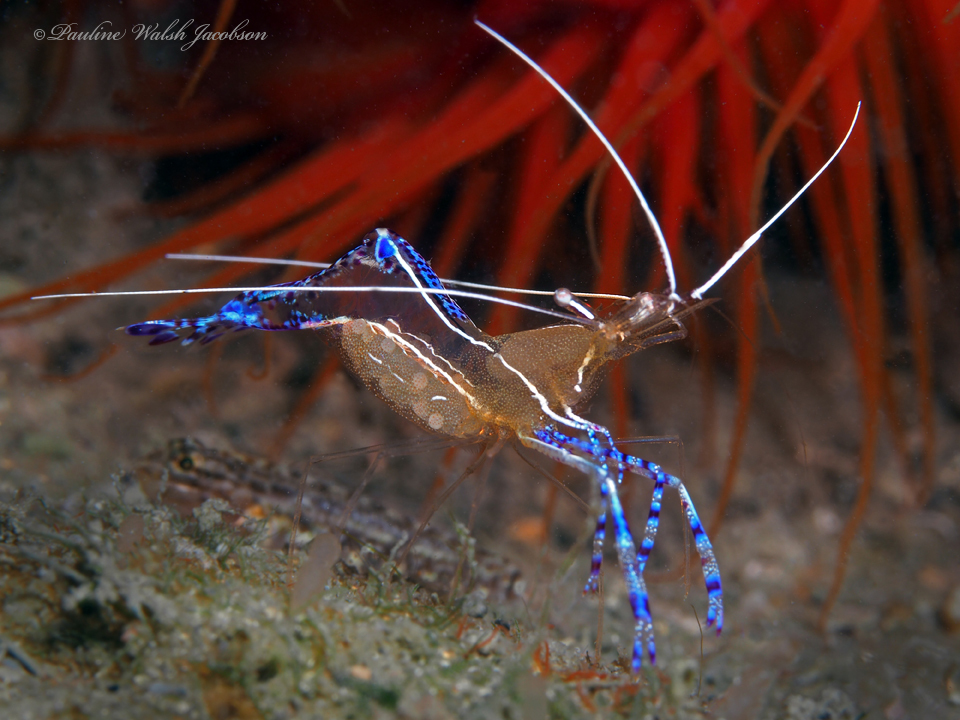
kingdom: Animalia
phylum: Arthropoda
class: Malacostraca
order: Decapoda
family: Palaemonidae
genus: Ancylomenes
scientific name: Ancylomenes pedersoni
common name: Pederson's cleaning shrimp
